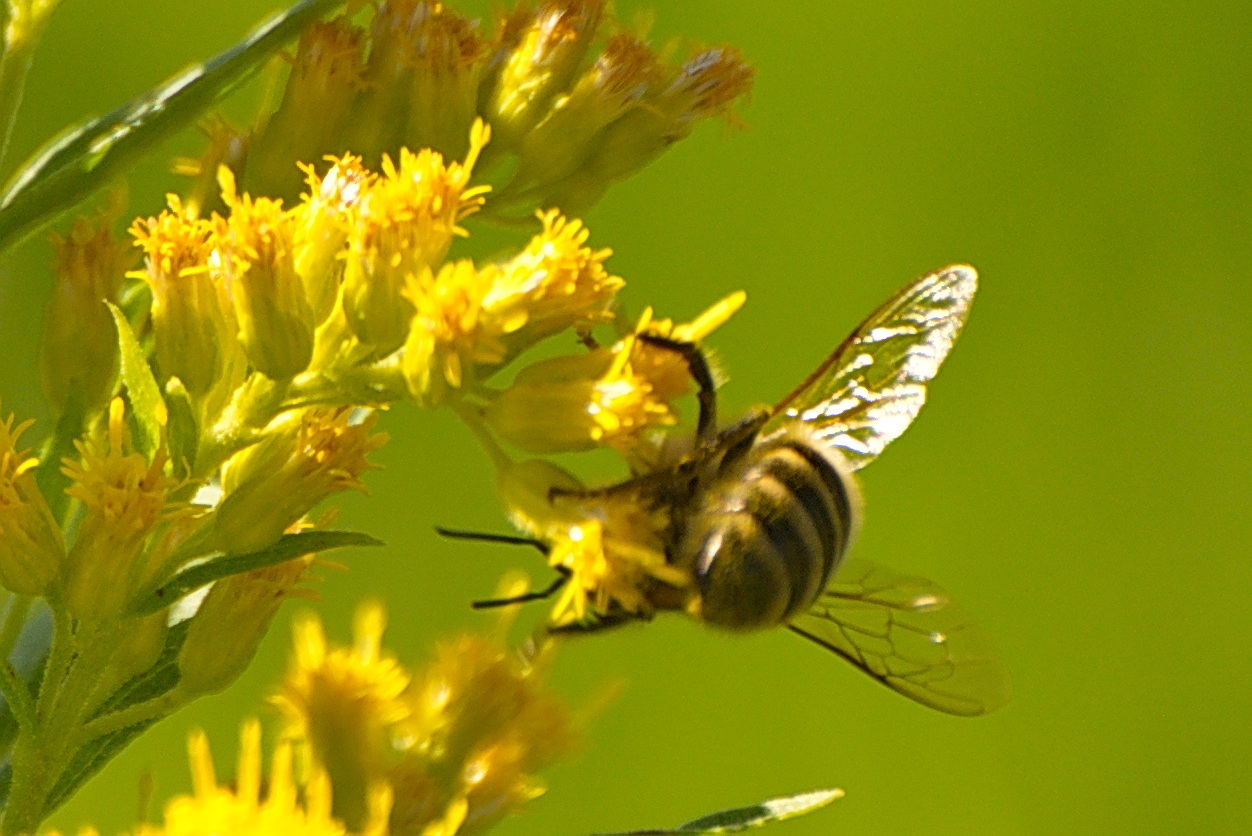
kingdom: Animalia
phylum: Arthropoda
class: Insecta
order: Hymenoptera
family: Apidae
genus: Apis
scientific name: Apis mellifera
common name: Honey bee
